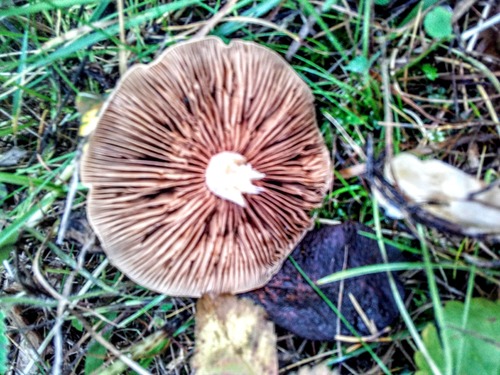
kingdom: Fungi
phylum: Basidiomycota
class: Agaricomycetes
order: Agaricales
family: Cortinariaceae
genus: Cortinarius
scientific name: Cortinarius pholideus
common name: Scaly webcap
